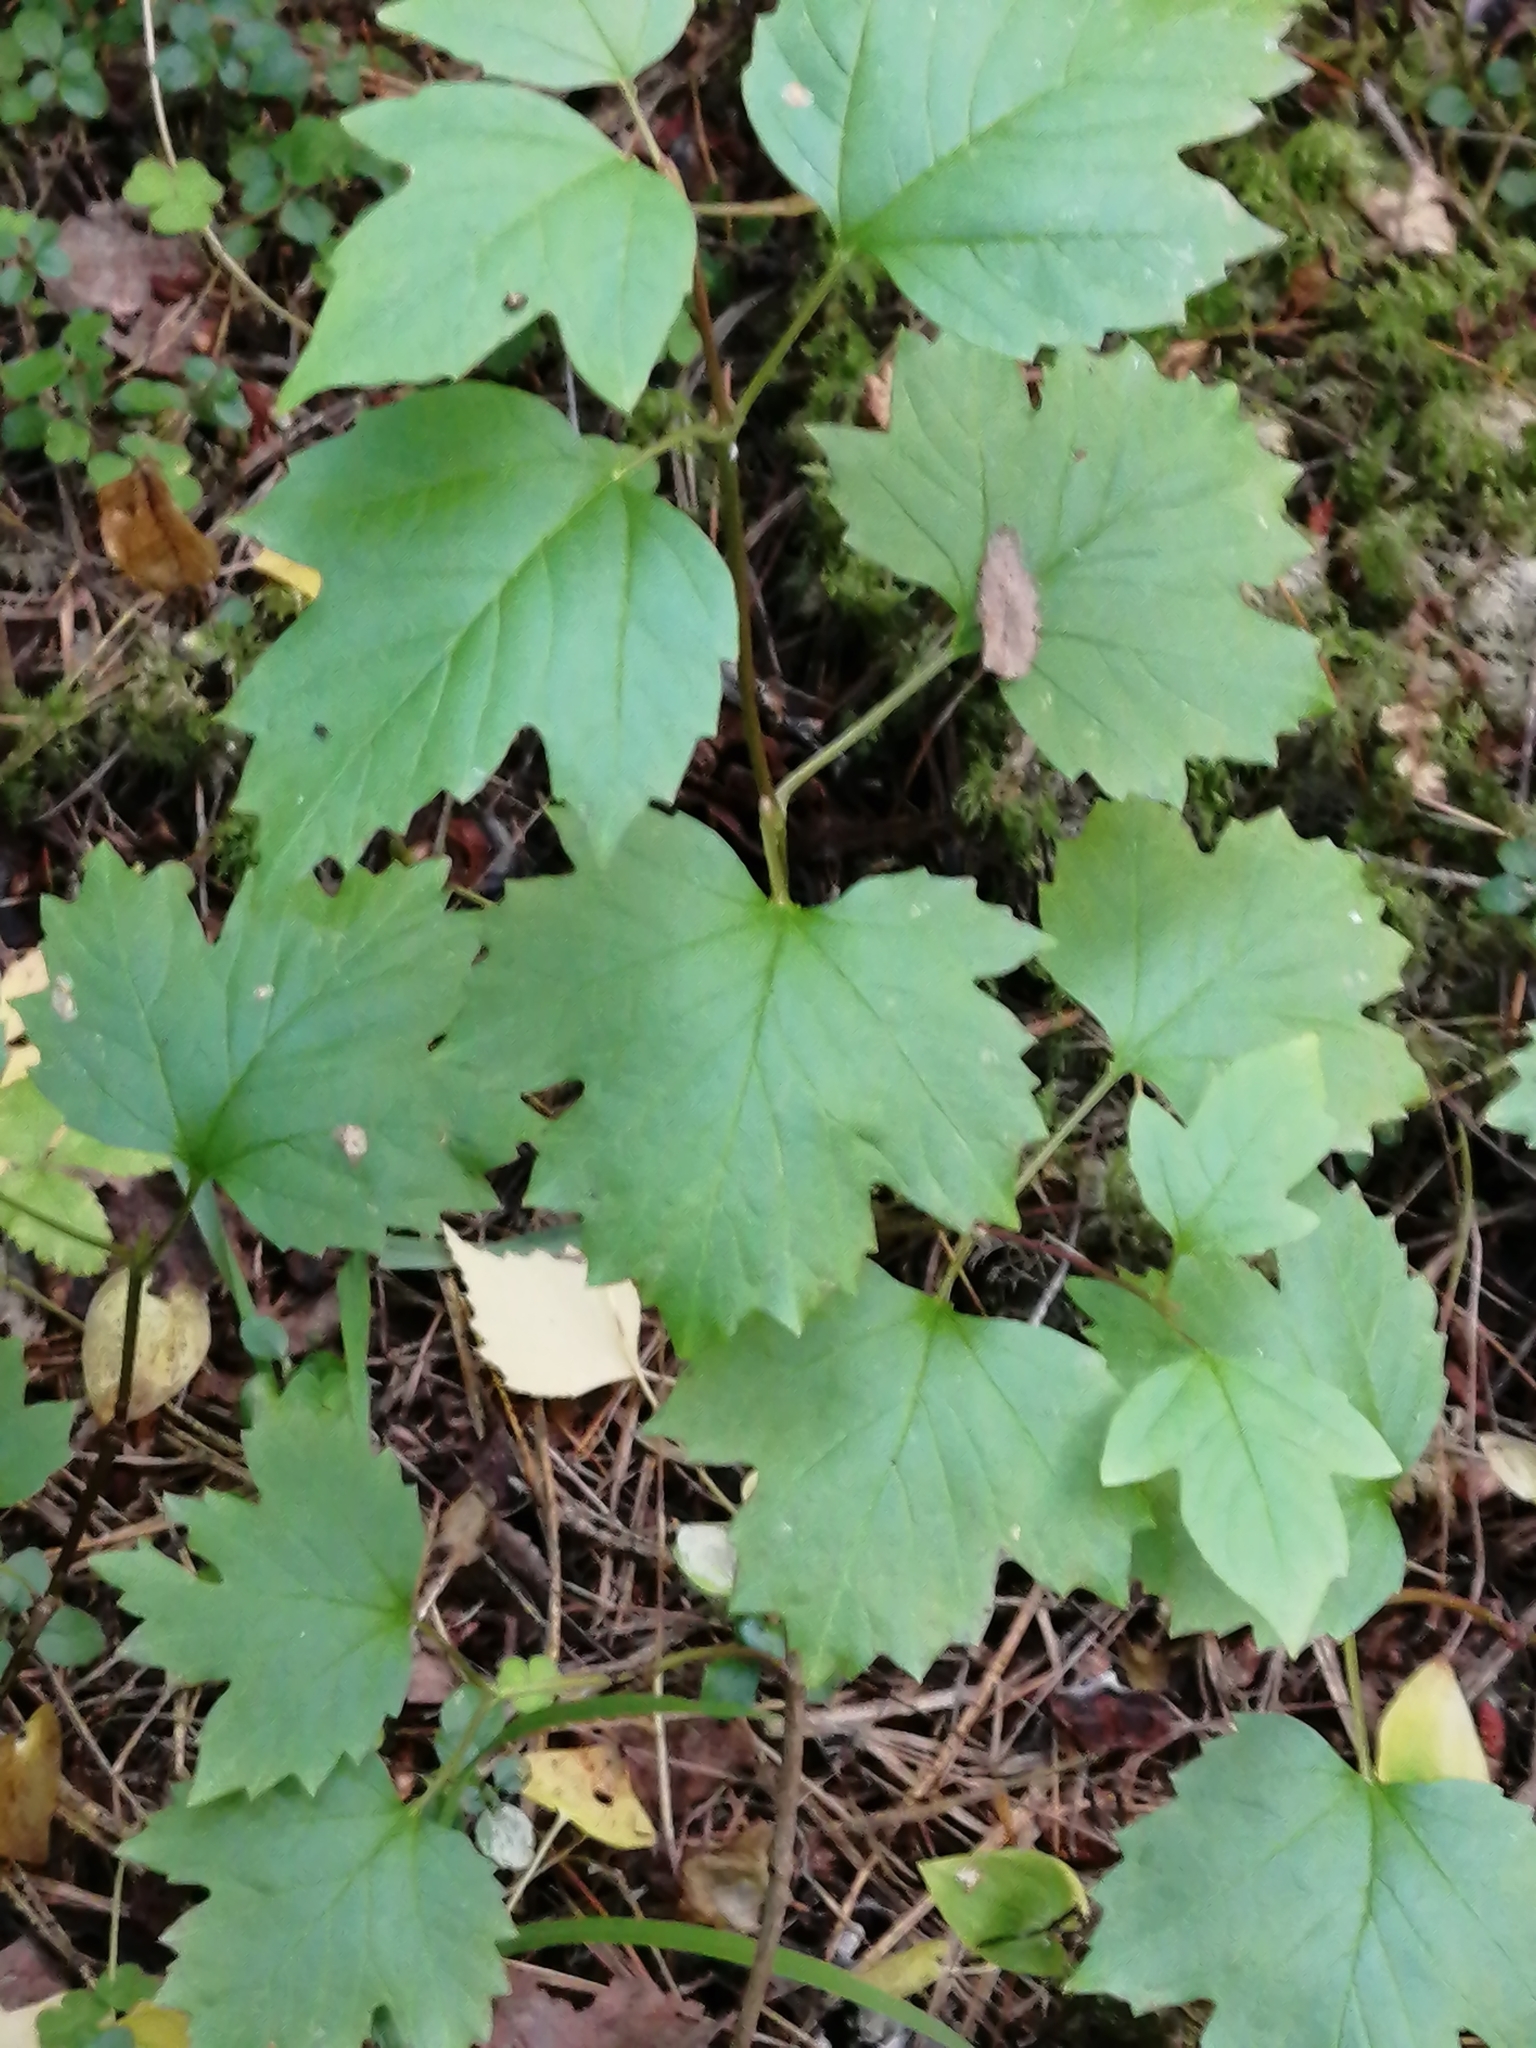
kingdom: Plantae
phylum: Tracheophyta
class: Magnoliopsida
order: Dipsacales
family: Viburnaceae
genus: Viburnum
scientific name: Viburnum opulus
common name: Guelder-rose
